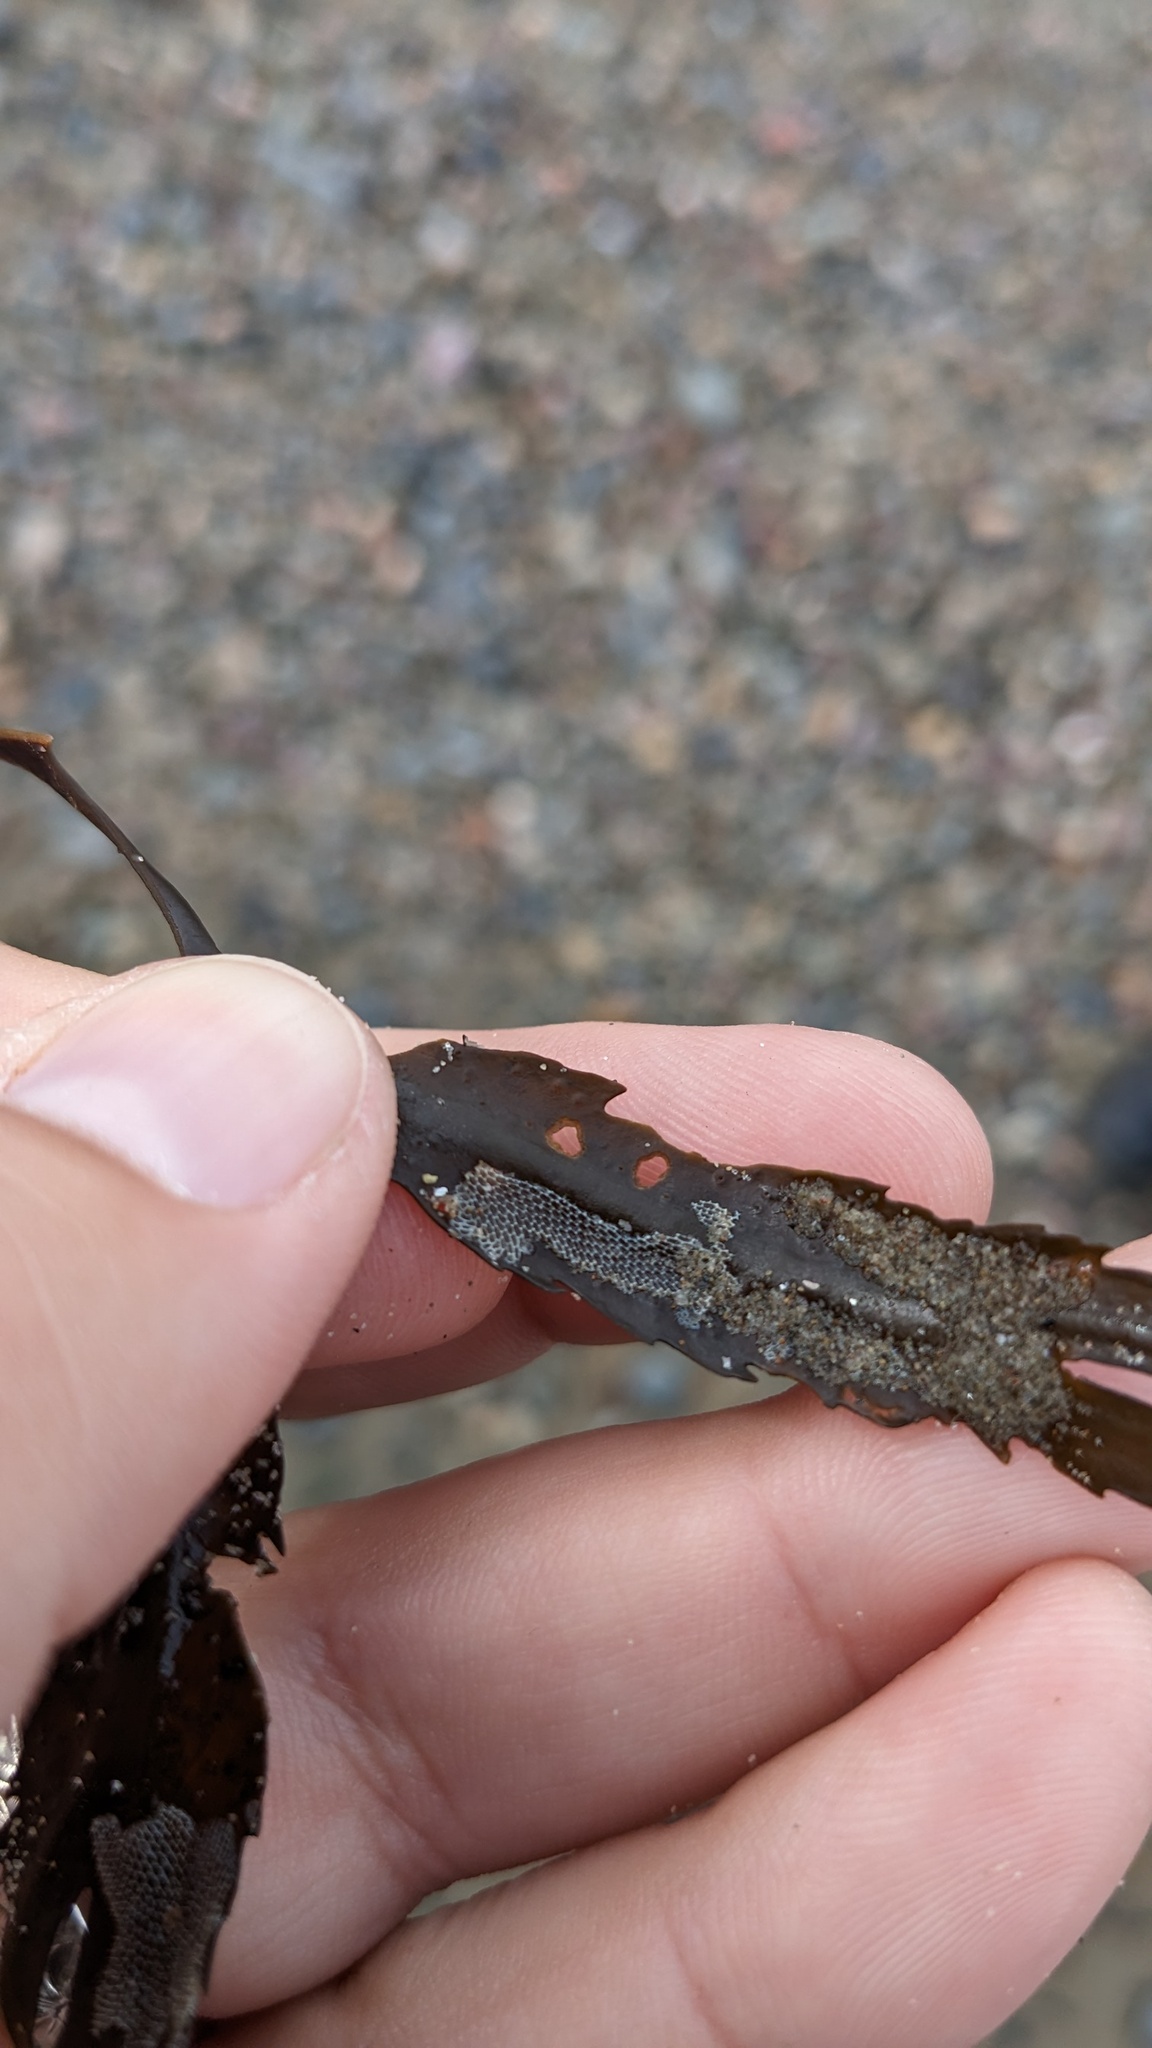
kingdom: Animalia
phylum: Bryozoa
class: Gymnolaemata
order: Cheilostomatida
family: Membraniporidae
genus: Membranipora
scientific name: Membranipora membranacea
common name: Sea mat
